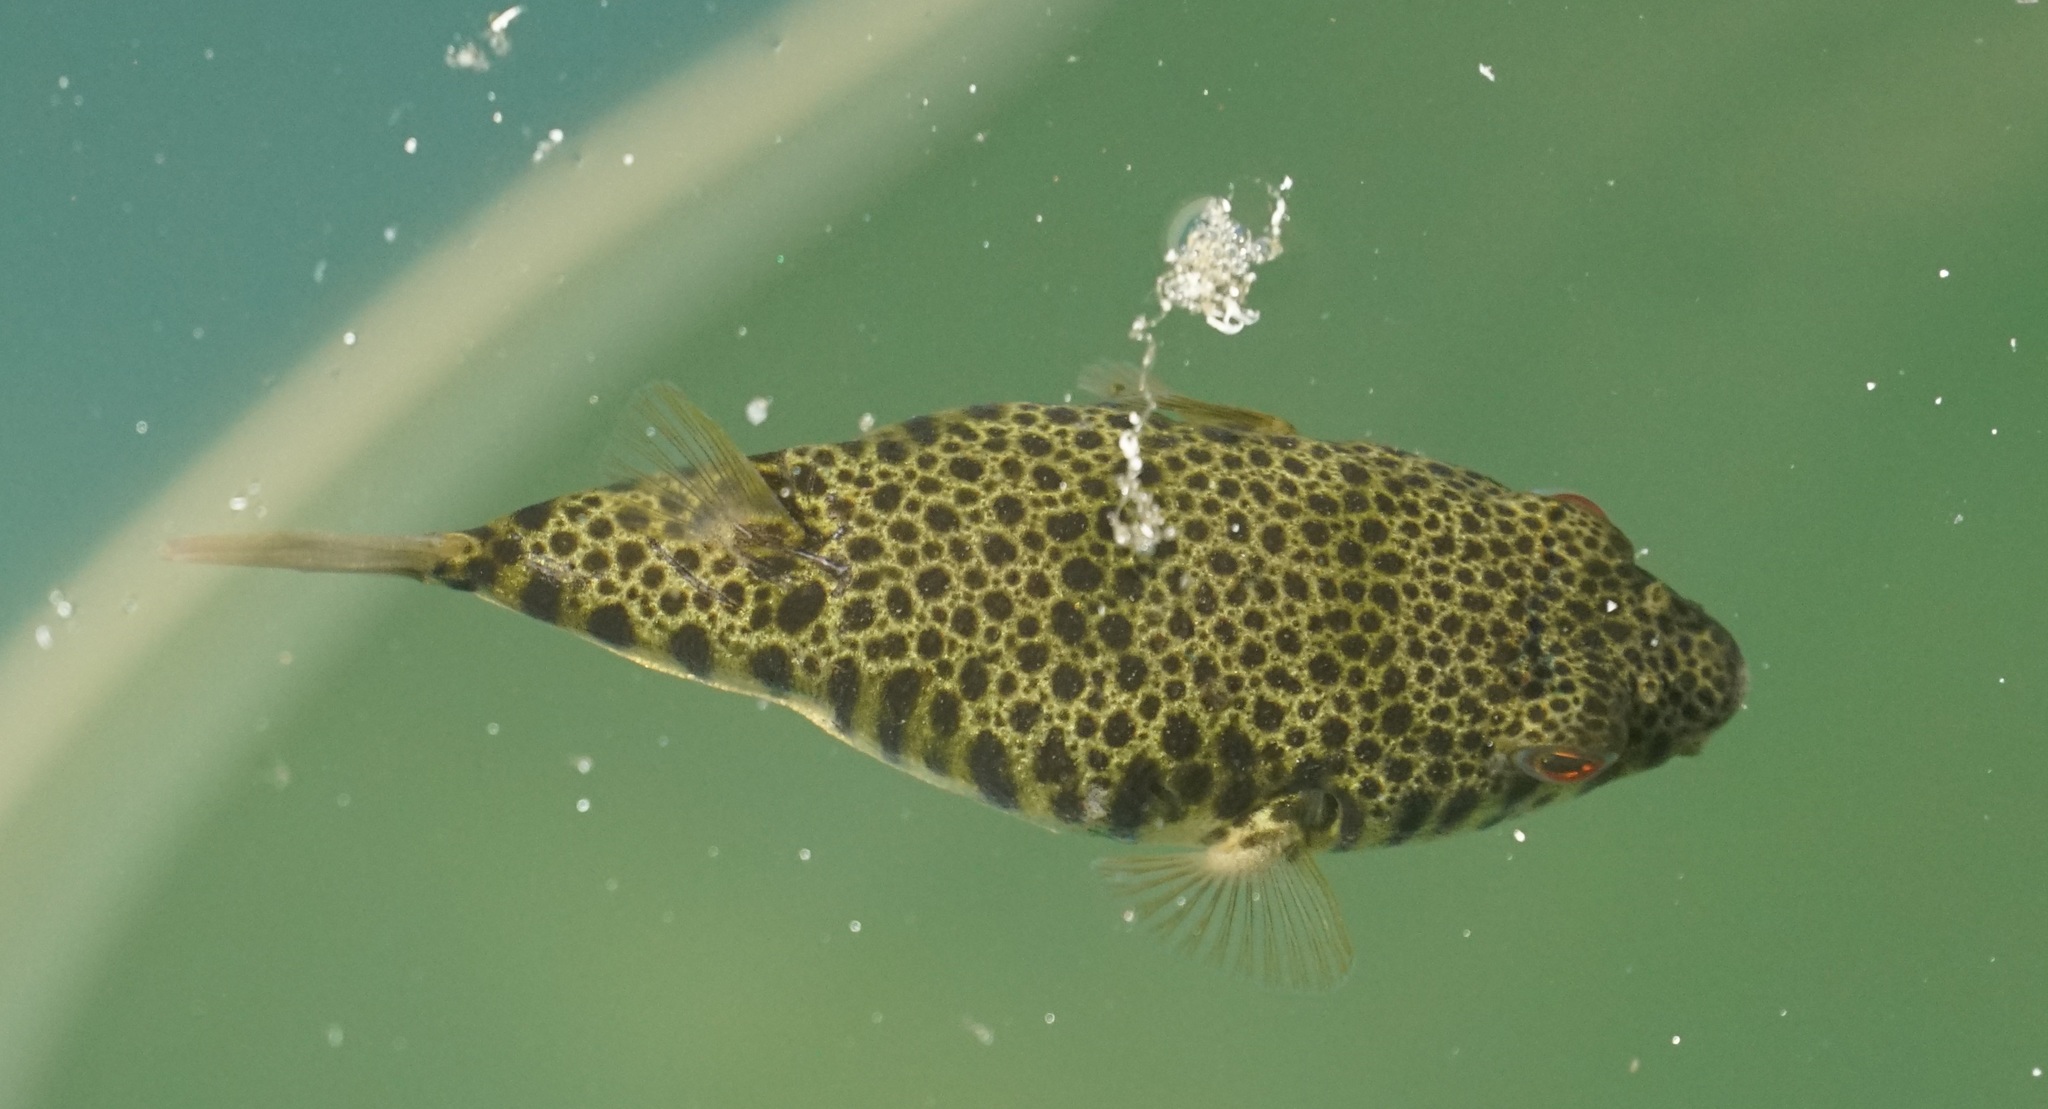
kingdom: Animalia
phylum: Chordata
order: Tetraodontiformes
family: Tetraodontidae
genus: Tetractenos
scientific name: Tetractenos hamiltoni
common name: Common toadfish
